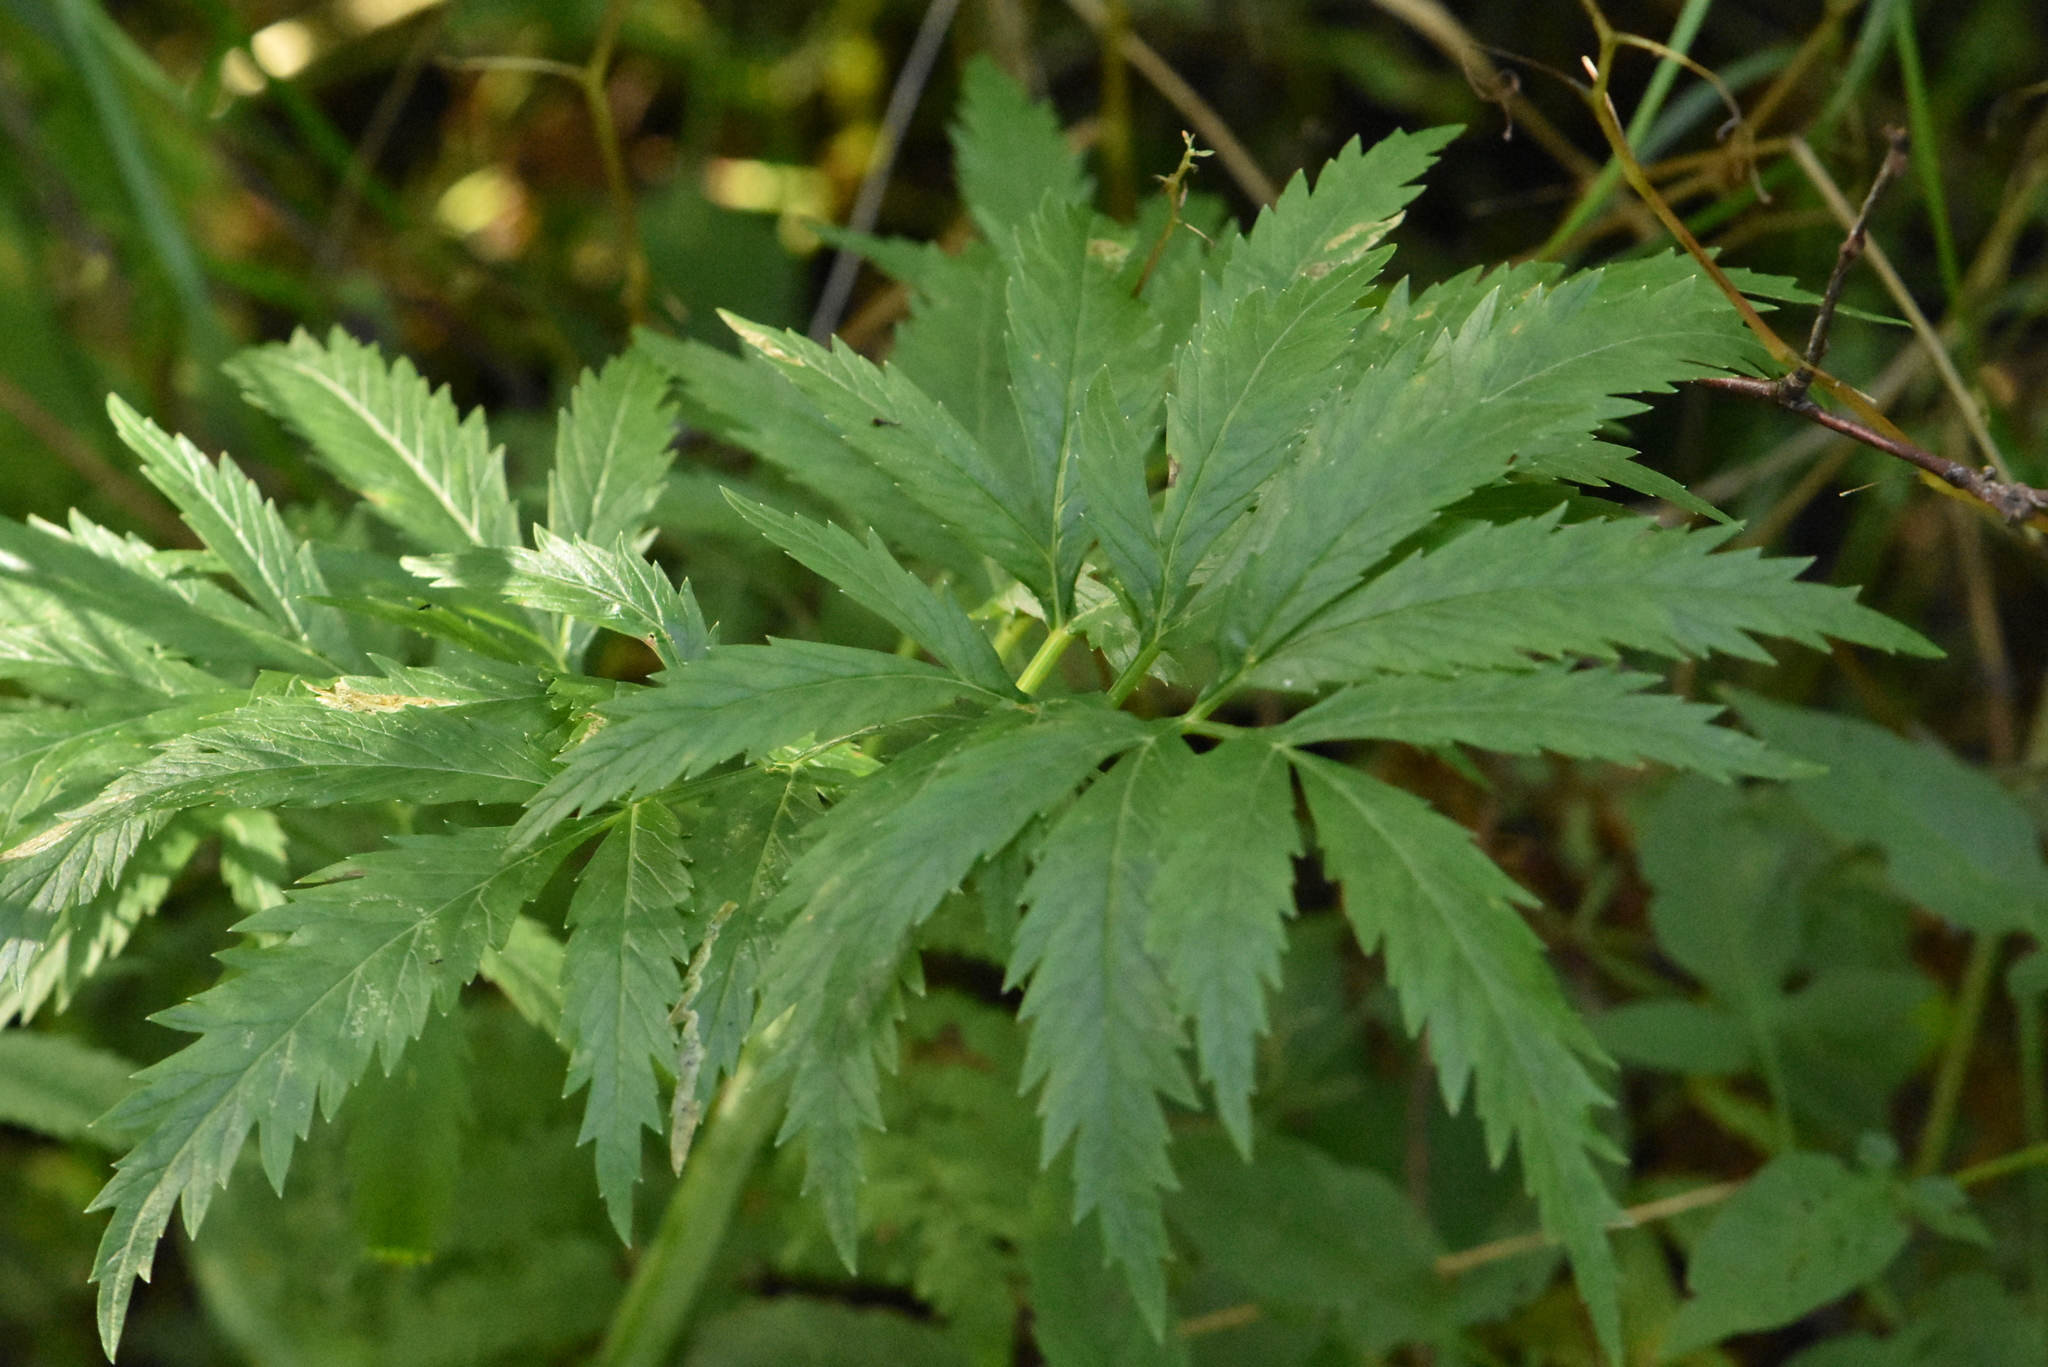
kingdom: Plantae
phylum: Tracheophyta
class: Magnoliopsida
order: Apiales
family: Apiaceae
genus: Cicuta
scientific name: Cicuta virosa
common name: Cowbane
